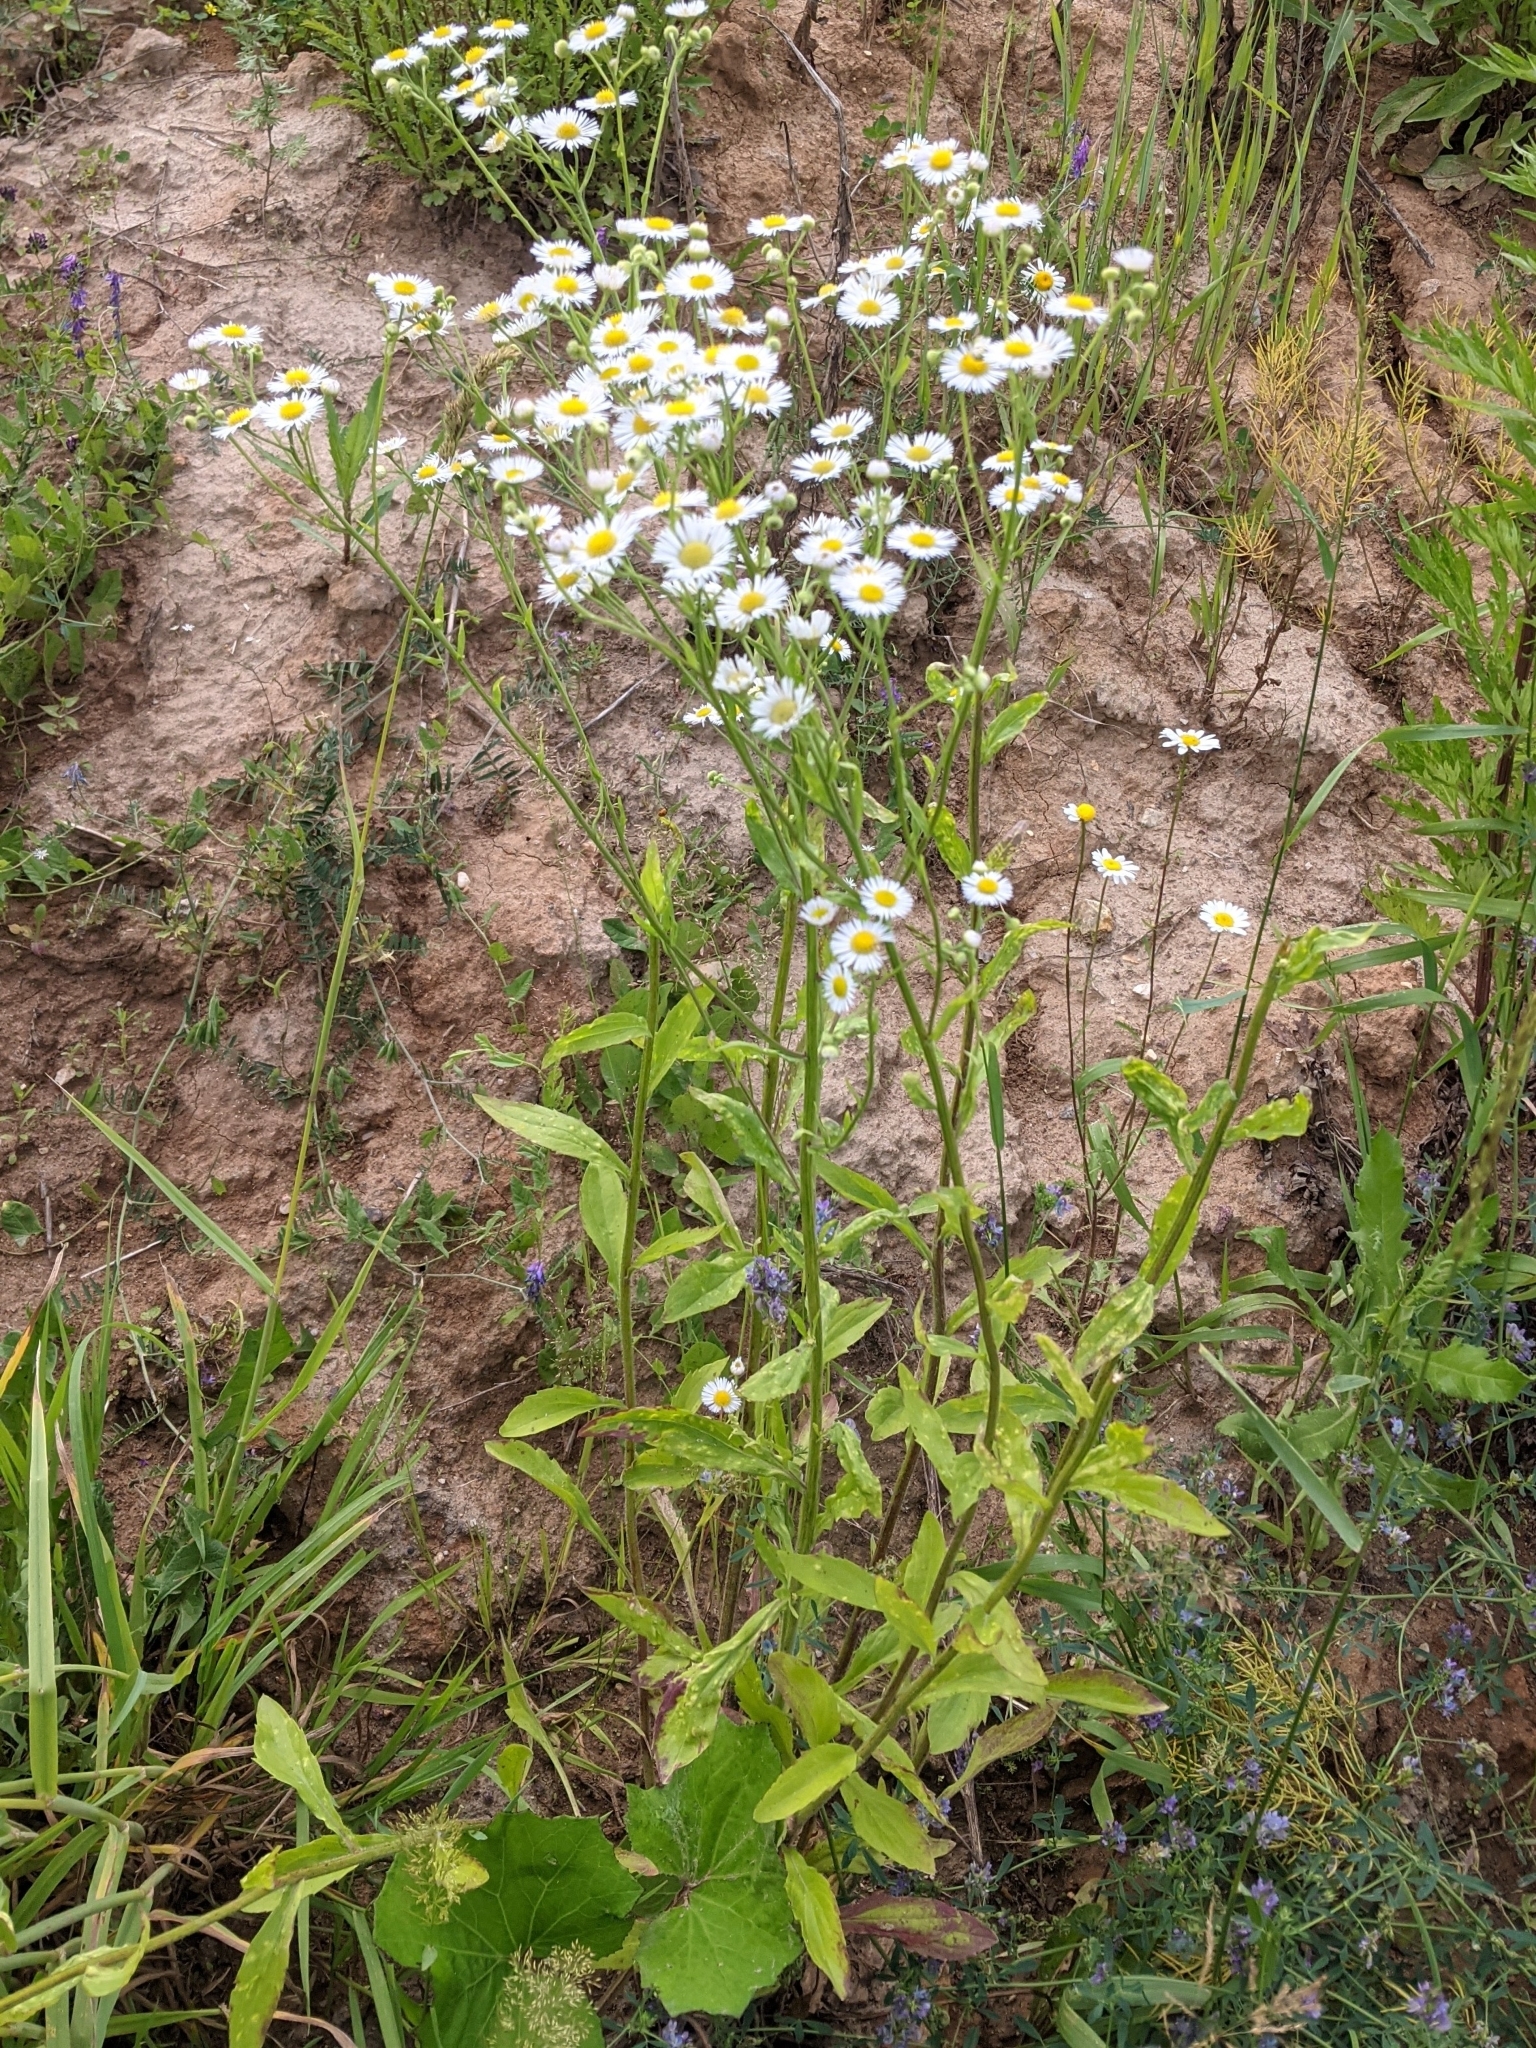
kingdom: Plantae
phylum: Tracheophyta
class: Magnoliopsida
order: Asterales
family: Asteraceae
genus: Erigeron
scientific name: Erigeron annuus
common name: Tall fleabane
